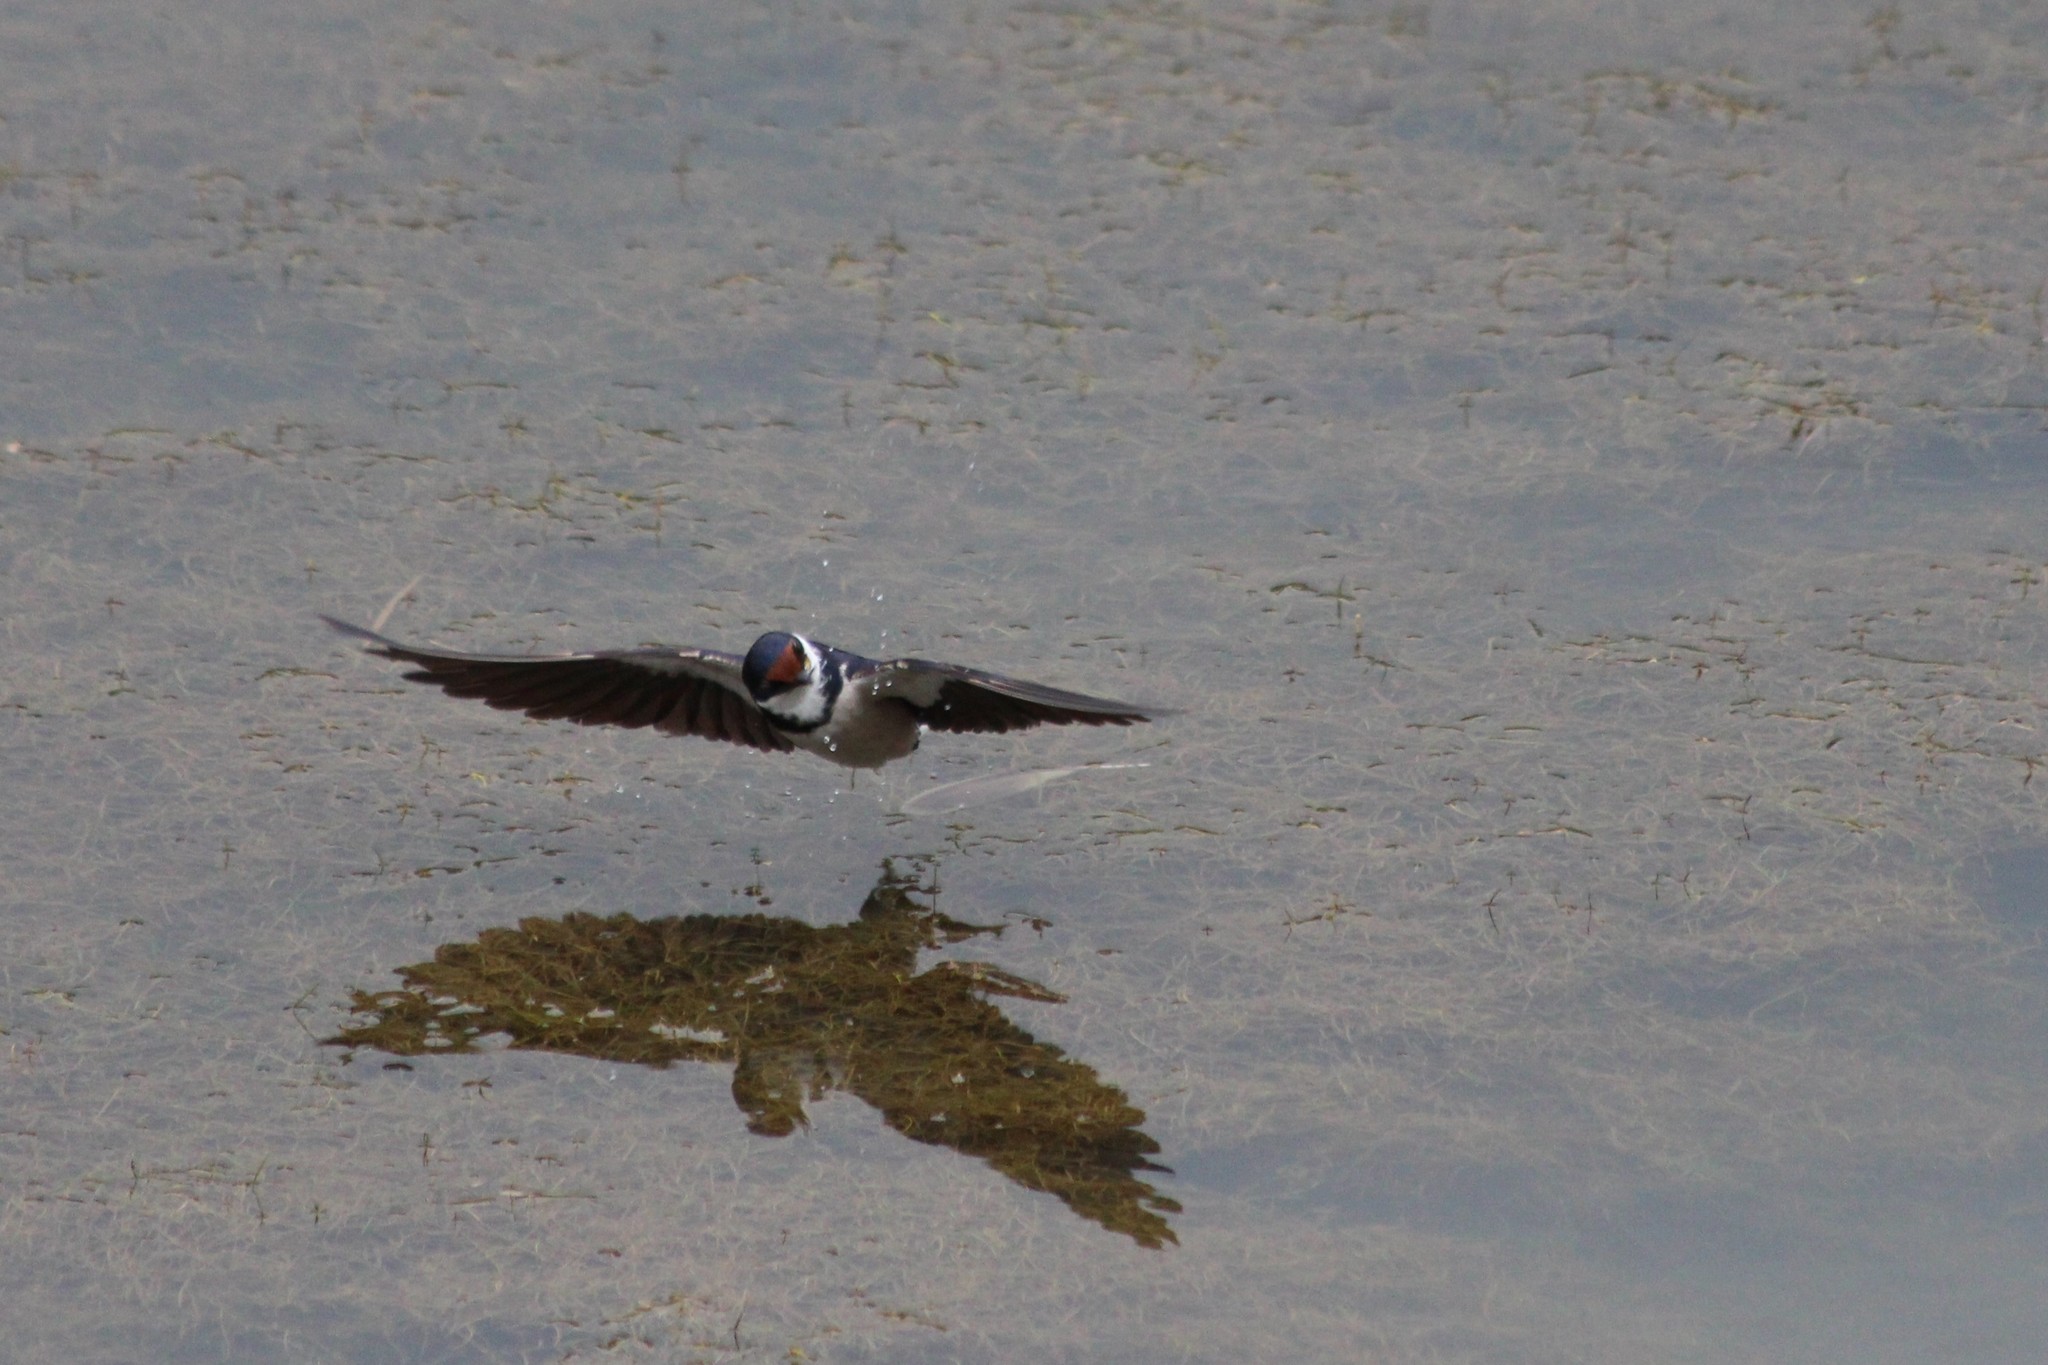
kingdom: Animalia
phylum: Chordata
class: Aves
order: Passeriformes
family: Hirundinidae
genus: Hirundo
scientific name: Hirundo albigularis
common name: White-throated swallow
